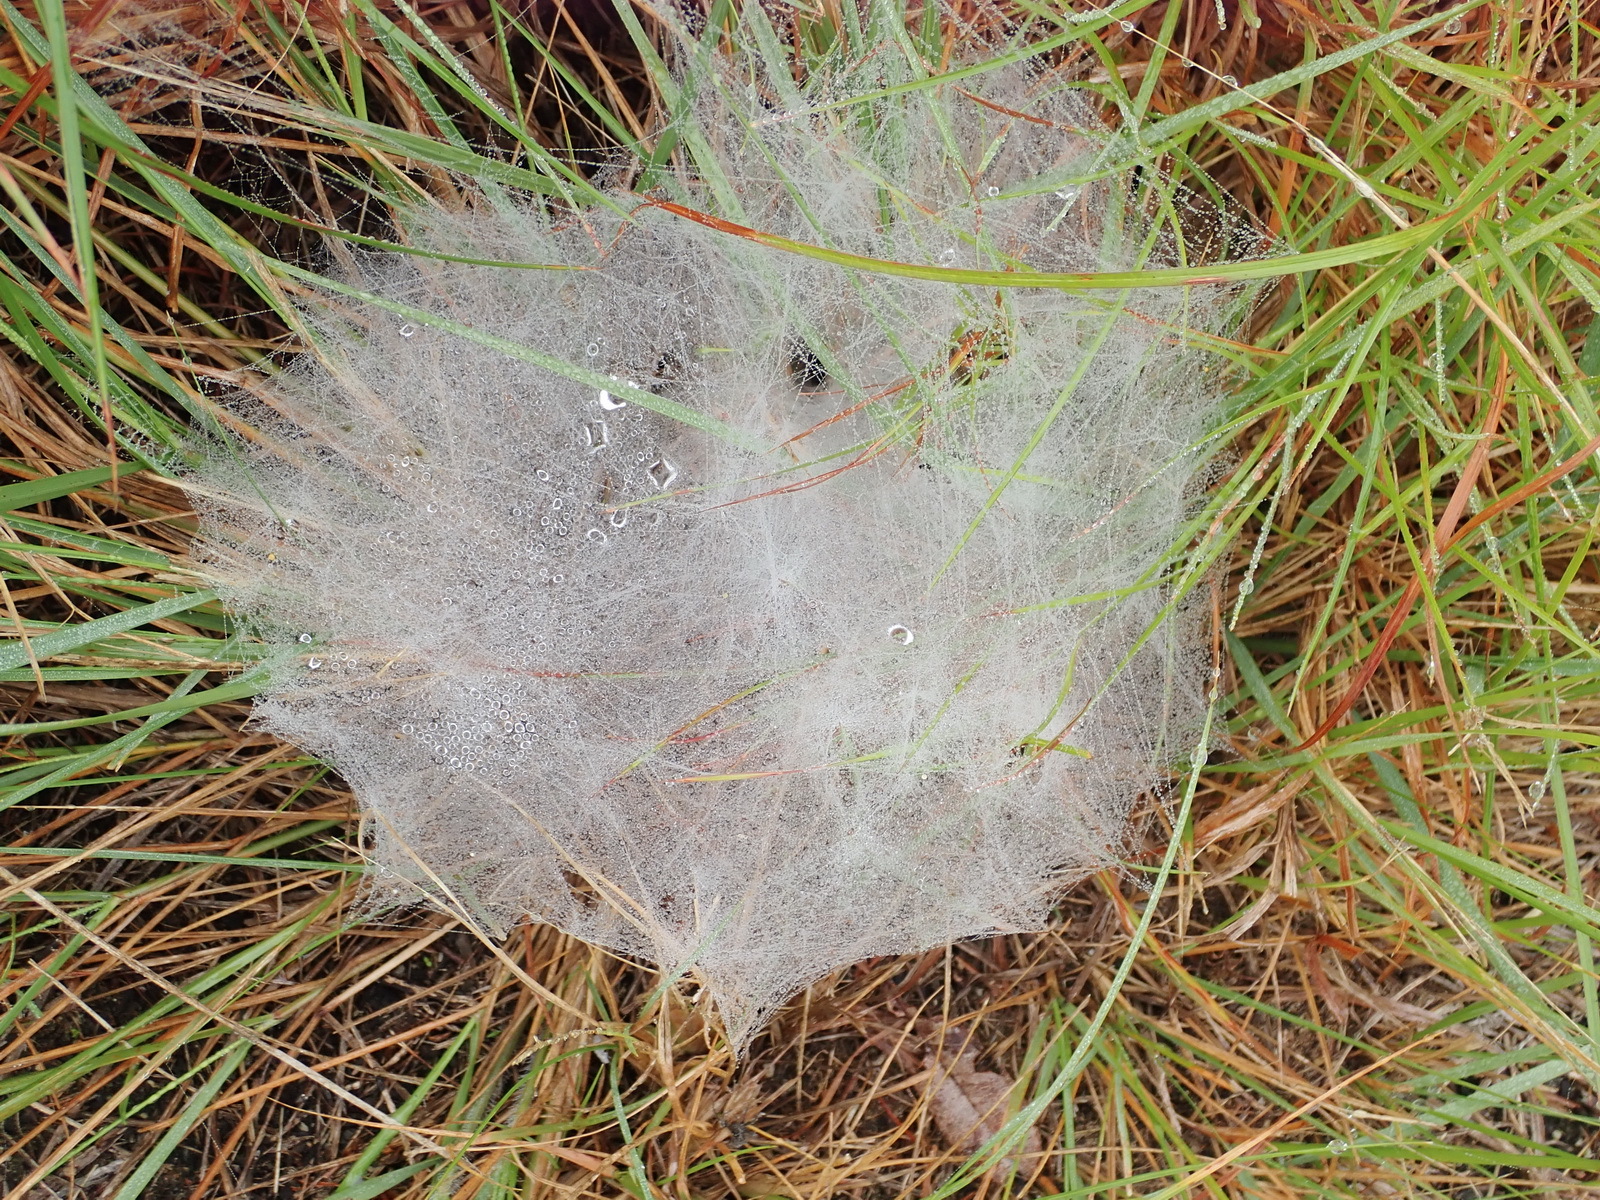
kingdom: Animalia
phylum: Arthropoda
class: Arachnida
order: Araneae
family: Pisauridae
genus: Euprosthenopsis
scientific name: Euprosthenopsis pulchella
